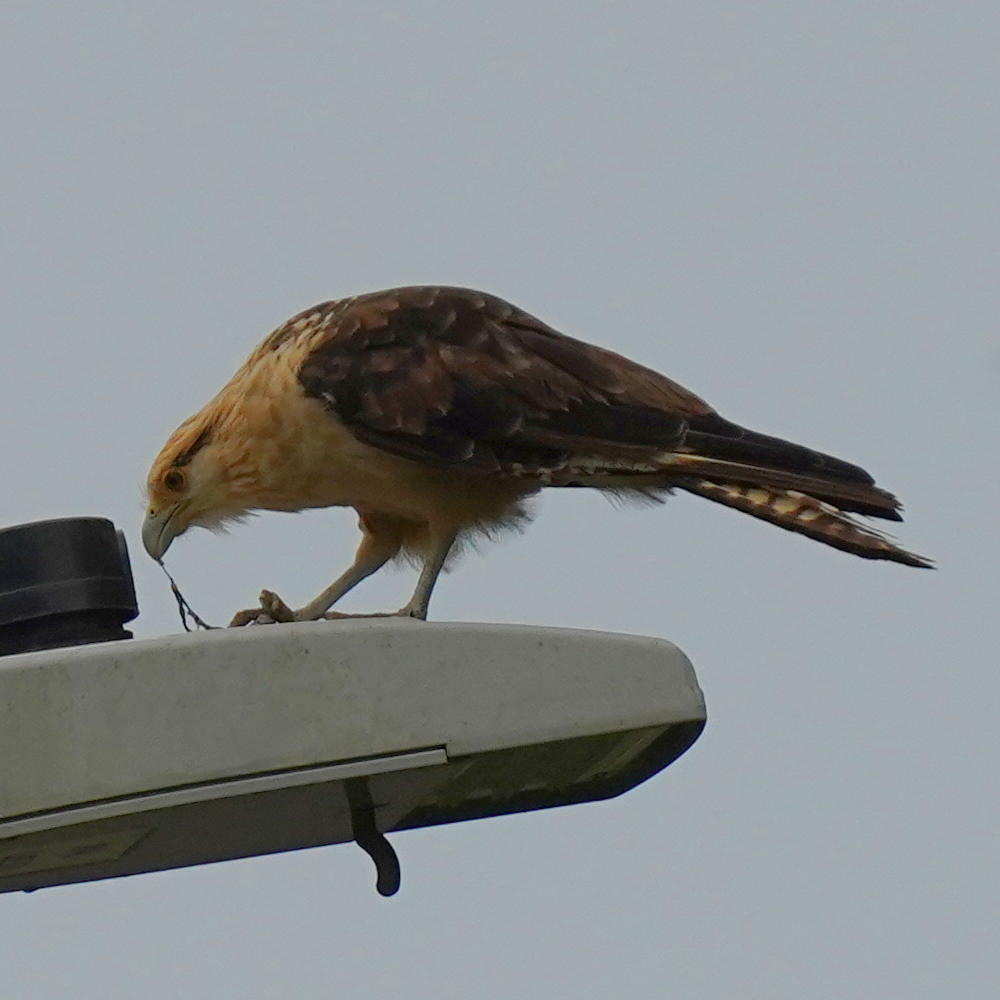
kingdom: Animalia
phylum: Chordata
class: Aves
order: Falconiformes
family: Falconidae
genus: Daptrius
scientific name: Daptrius
